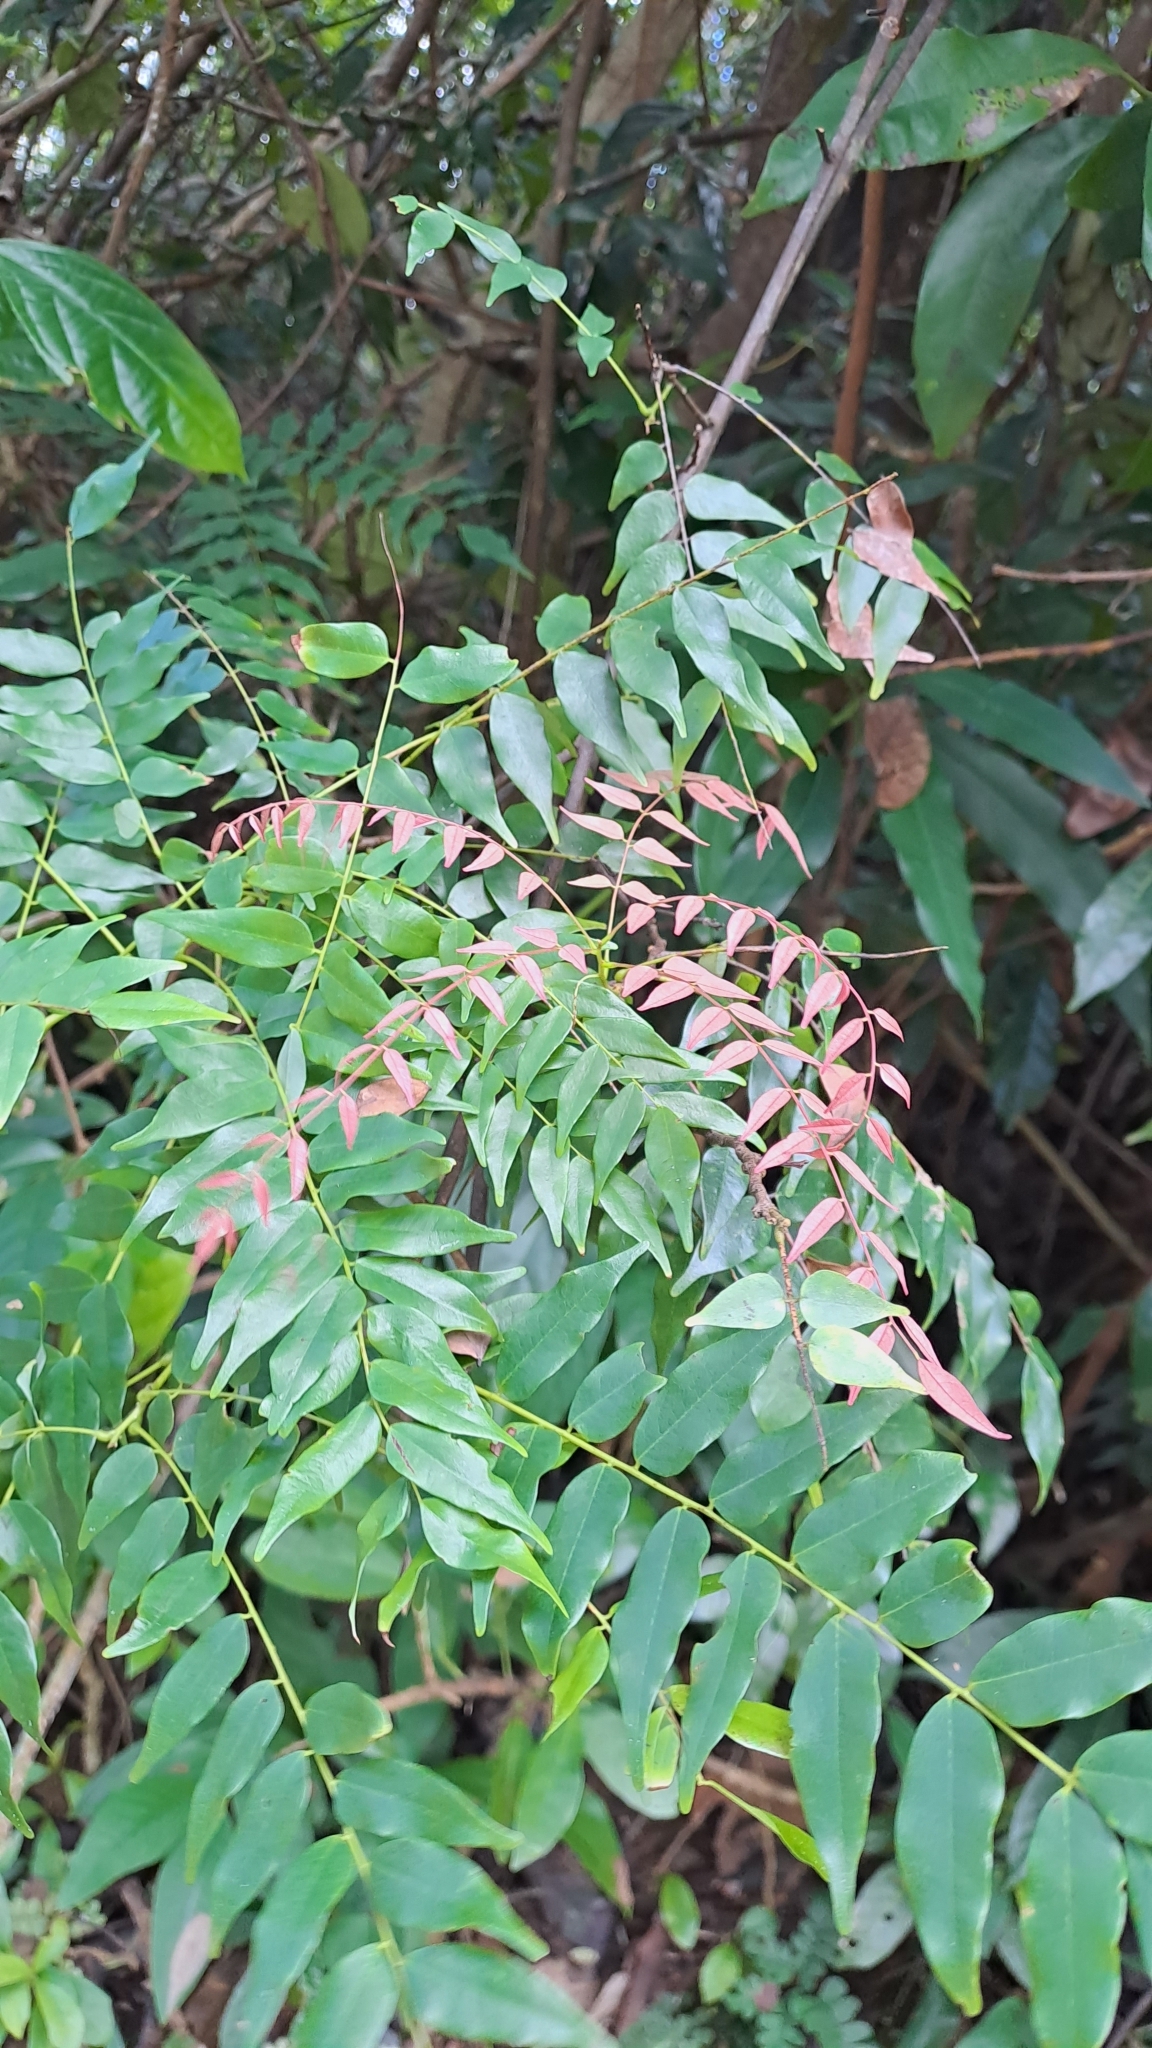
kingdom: Plantae
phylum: Tracheophyta
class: Magnoliopsida
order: Oxalidales
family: Connaraceae
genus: Rourea
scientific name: Rourea microphylla
